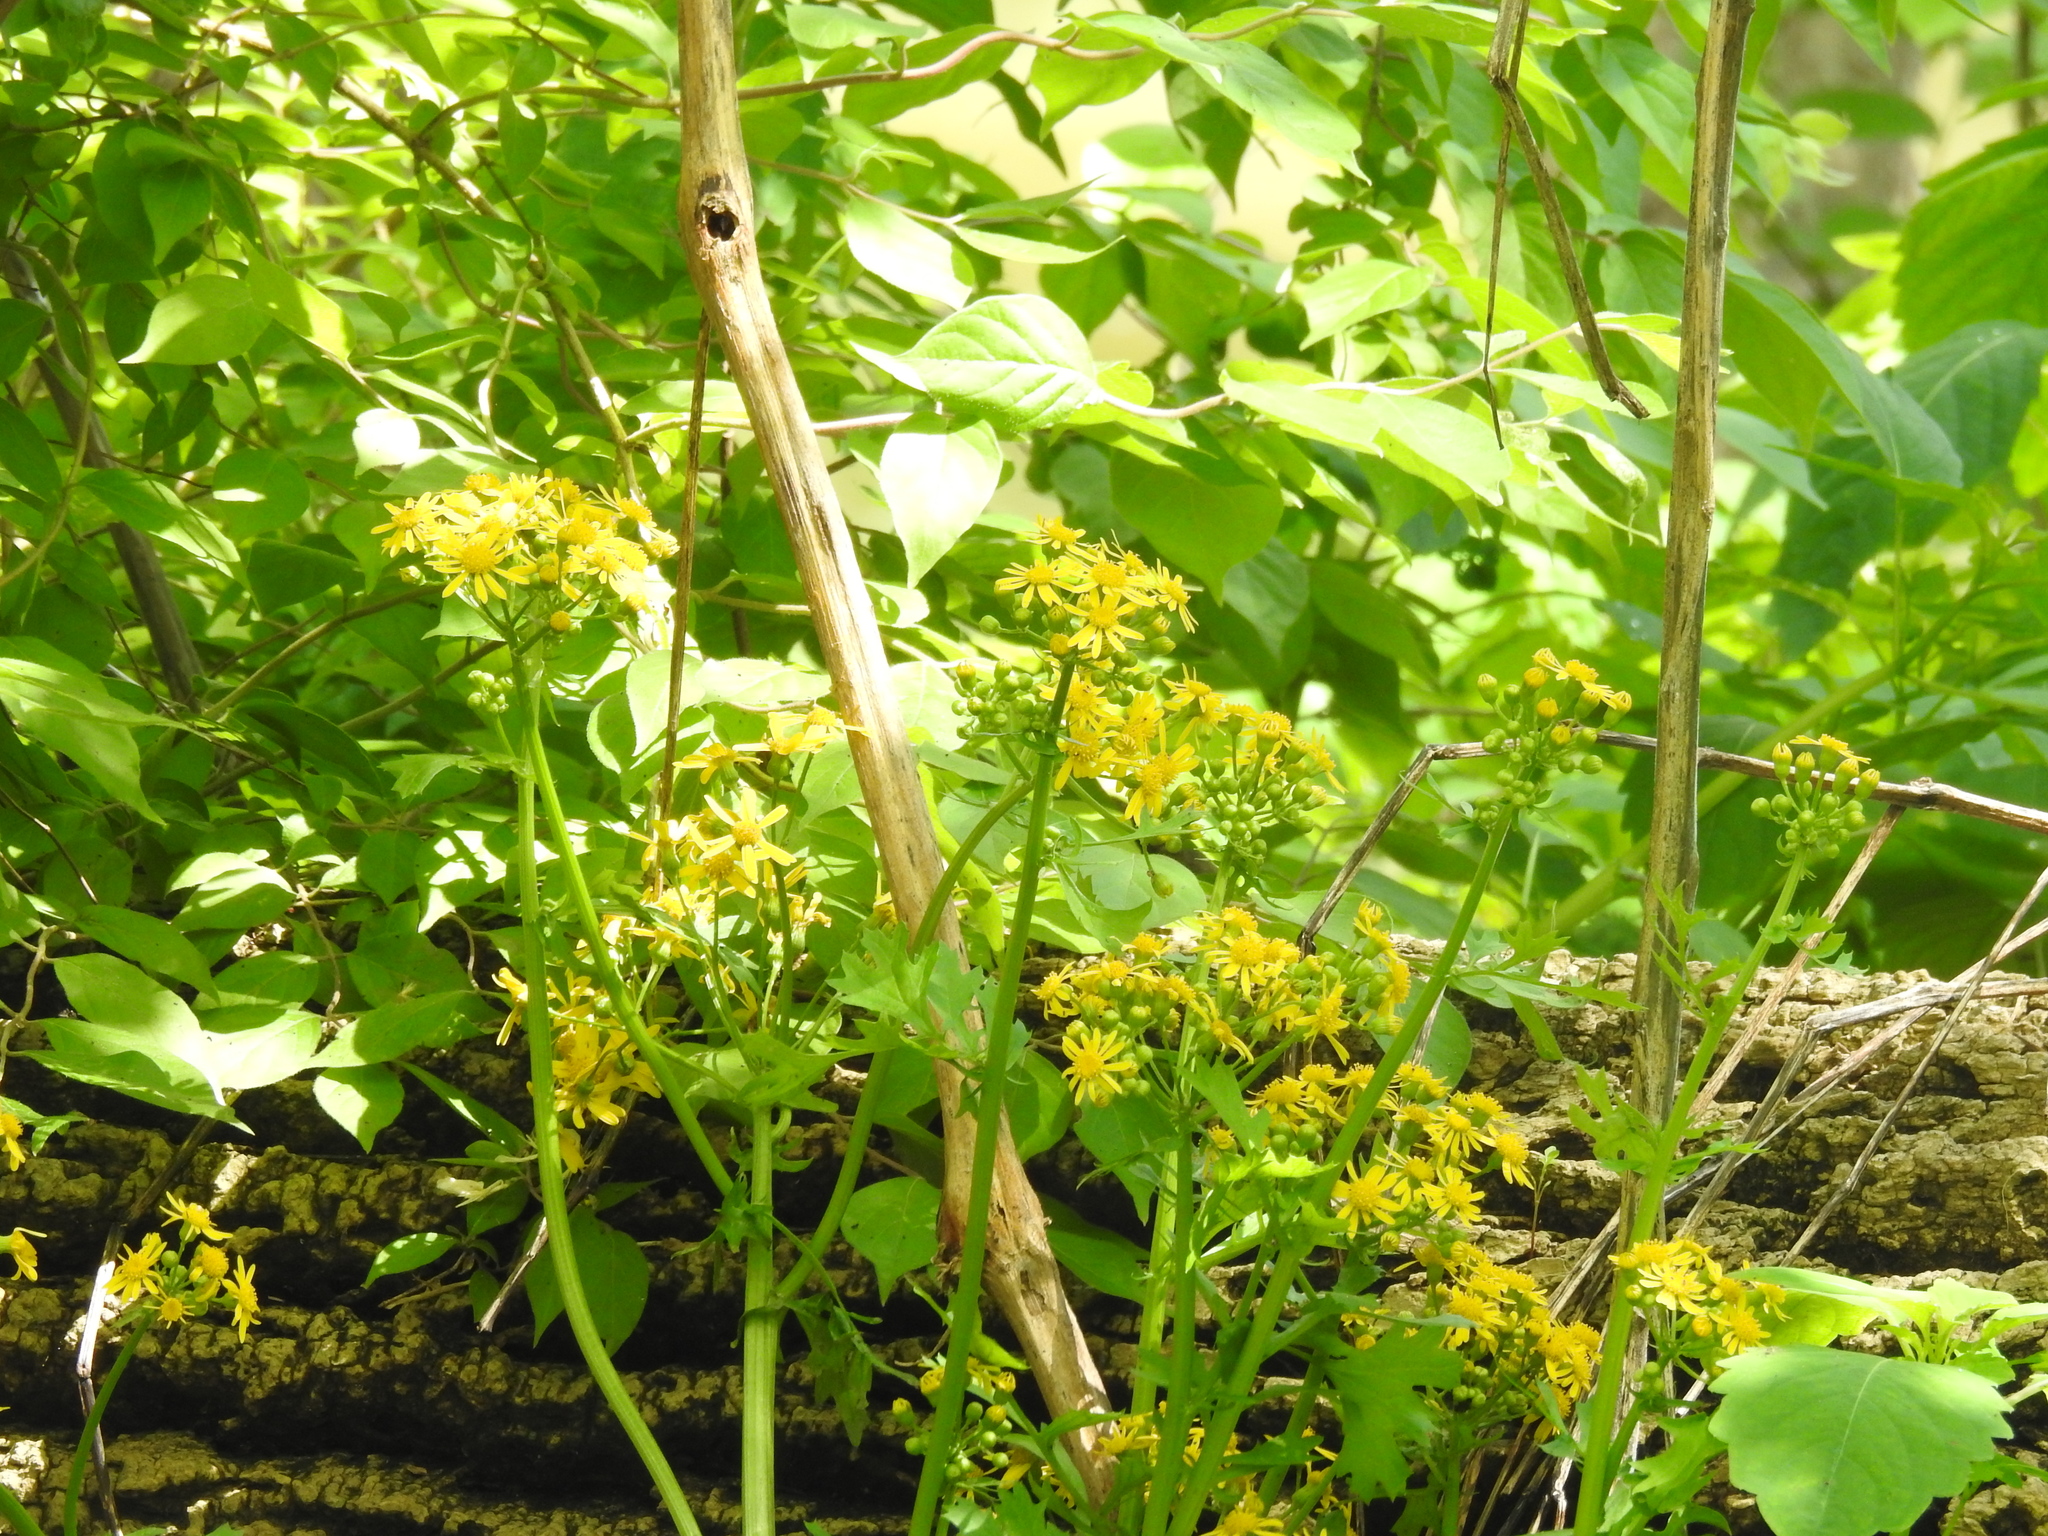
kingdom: Plantae
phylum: Tracheophyta
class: Magnoliopsida
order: Asterales
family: Asteraceae
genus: Packera
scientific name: Packera glabella
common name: Butterweed
